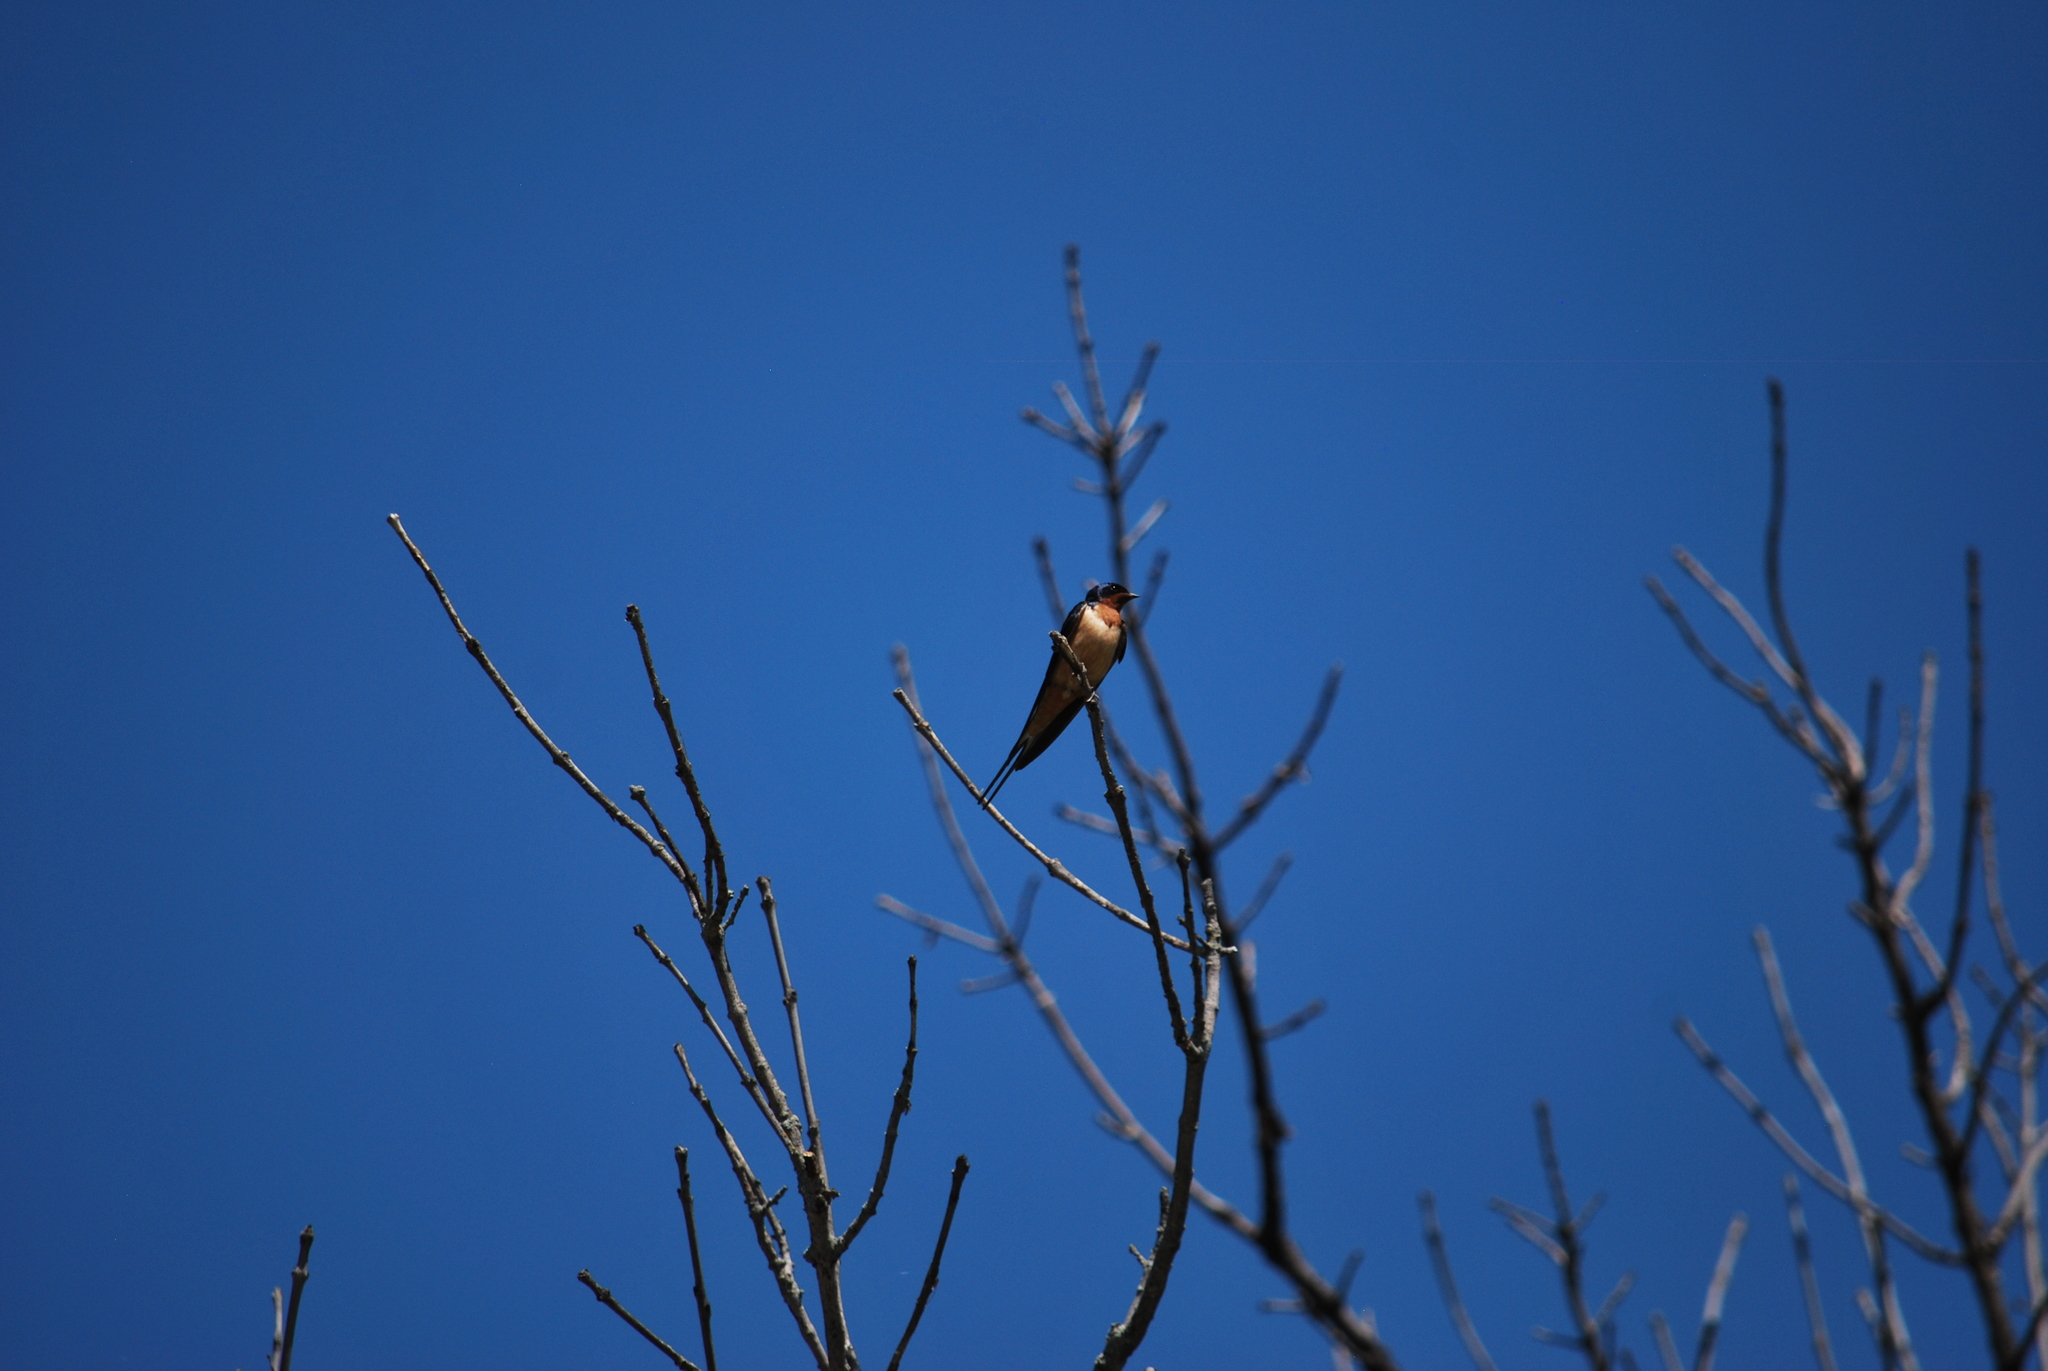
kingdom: Animalia
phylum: Chordata
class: Aves
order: Passeriformes
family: Hirundinidae
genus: Hirundo
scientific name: Hirundo rustica
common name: Barn swallow
